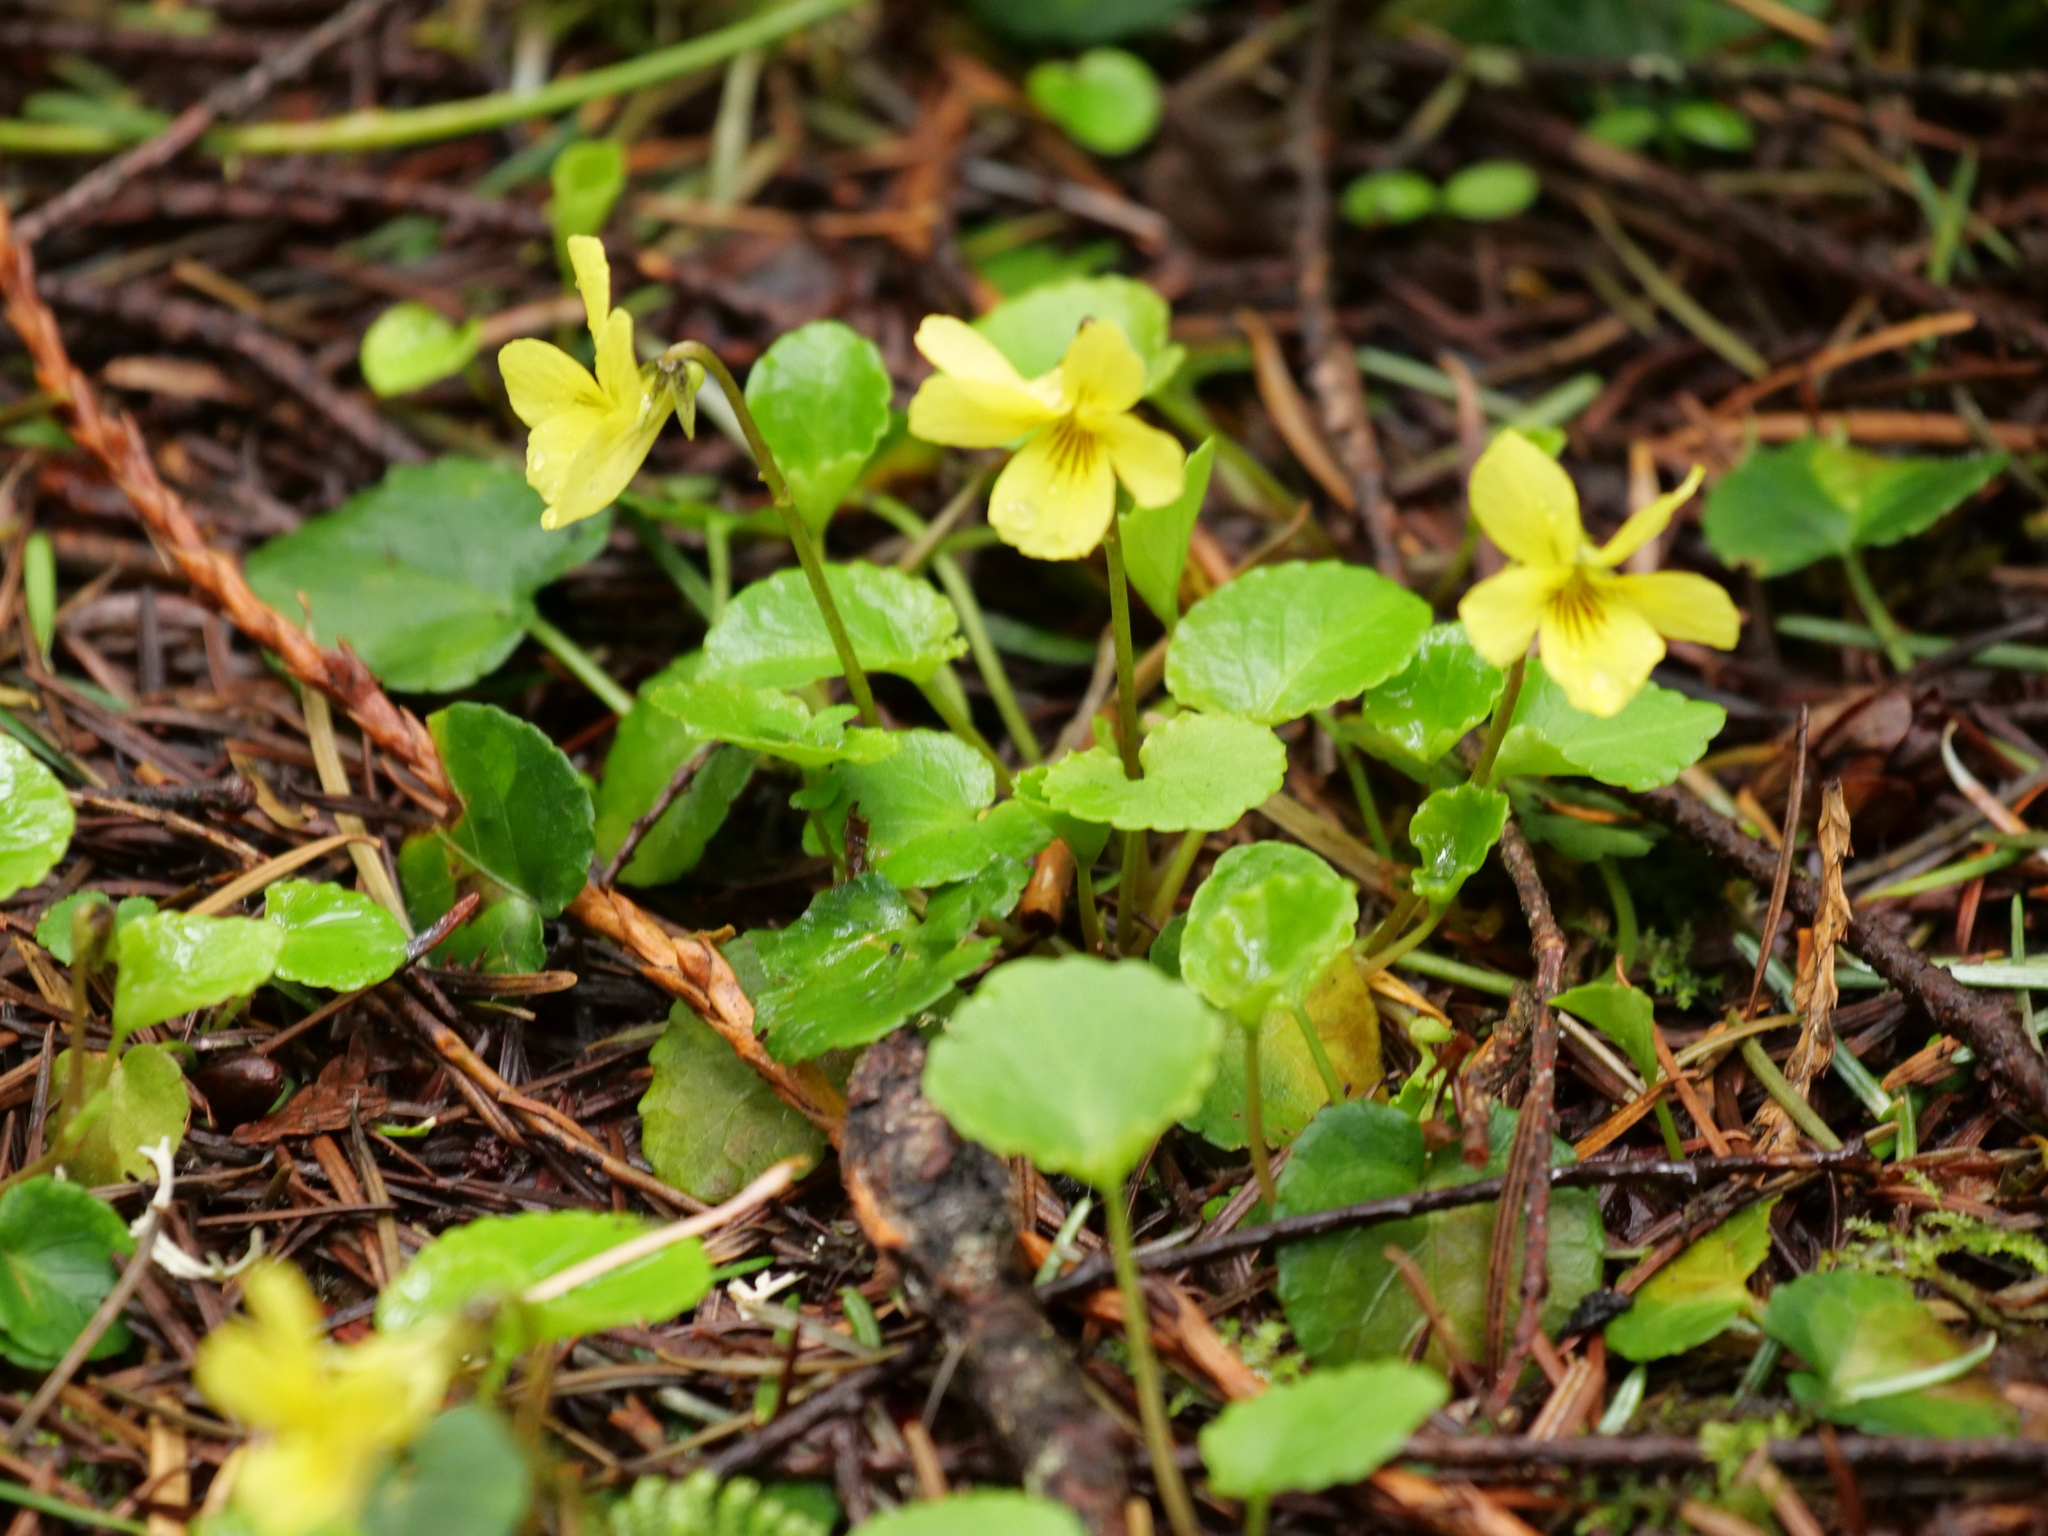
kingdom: Plantae
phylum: Tracheophyta
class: Magnoliopsida
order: Malpighiales
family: Violaceae
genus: Viola
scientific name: Viola sempervirens
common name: Evergreen violet
